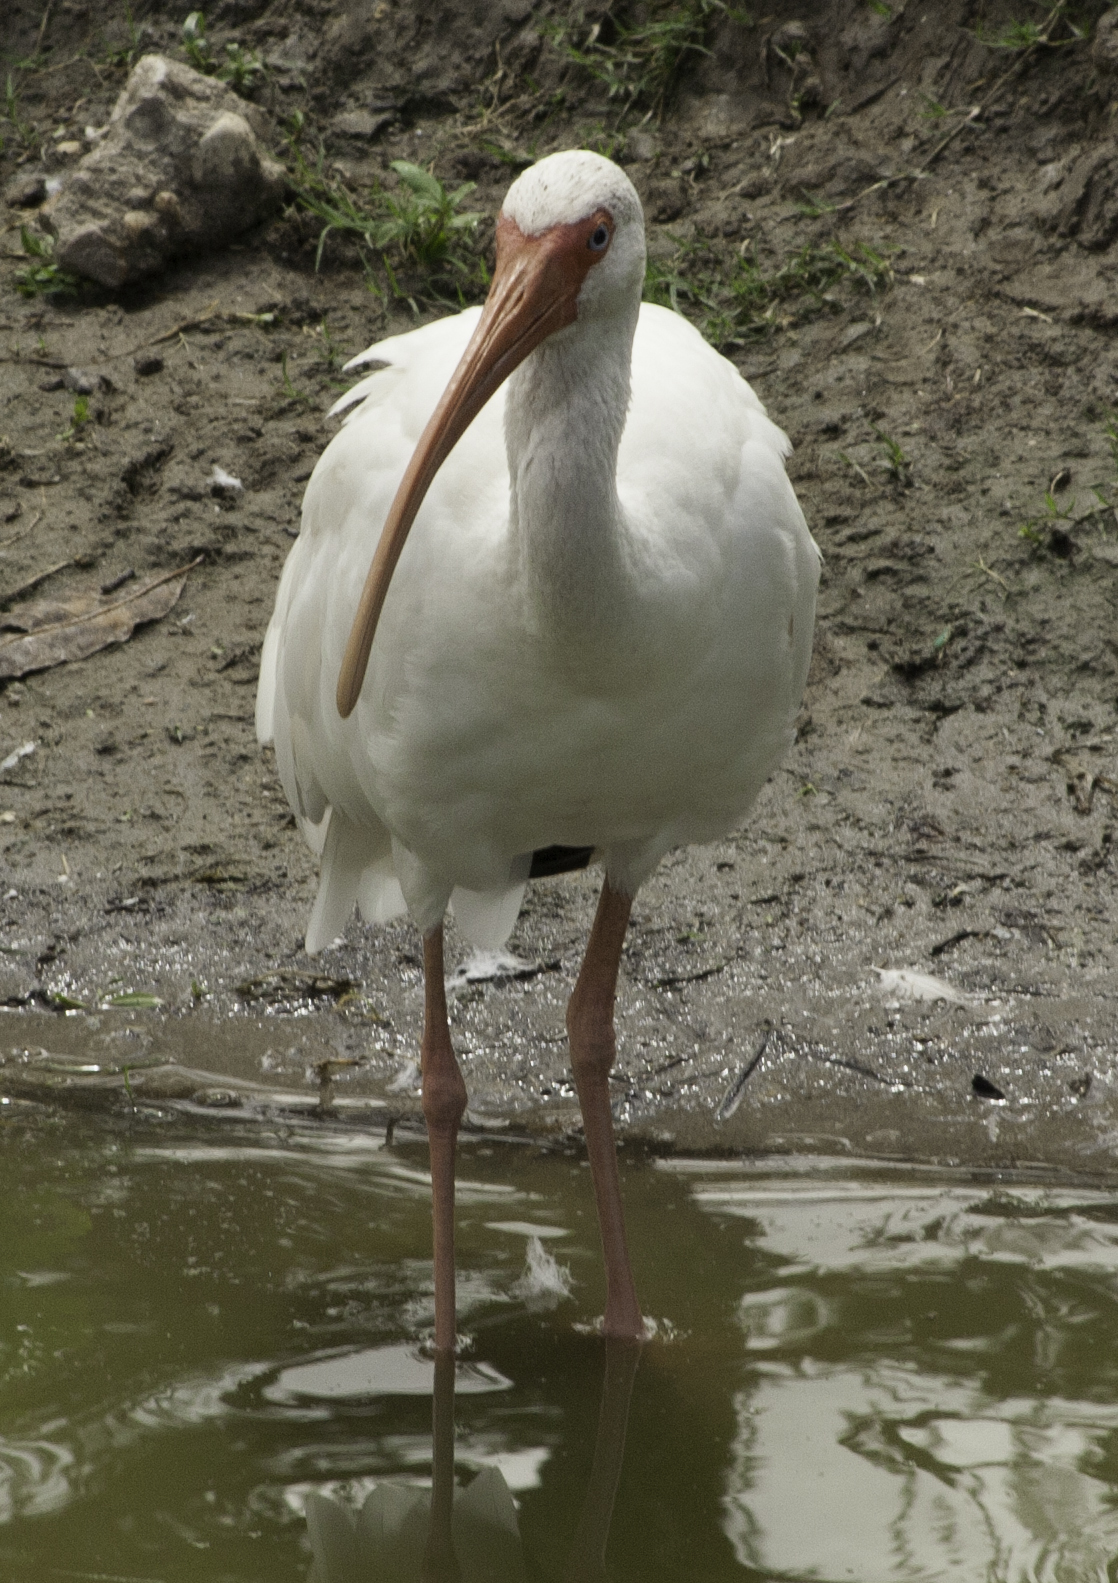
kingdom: Animalia
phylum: Chordata
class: Aves
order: Pelecaniformes
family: Threskiornithidae
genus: Eudocimus
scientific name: Eudocimus albus
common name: White ibis
